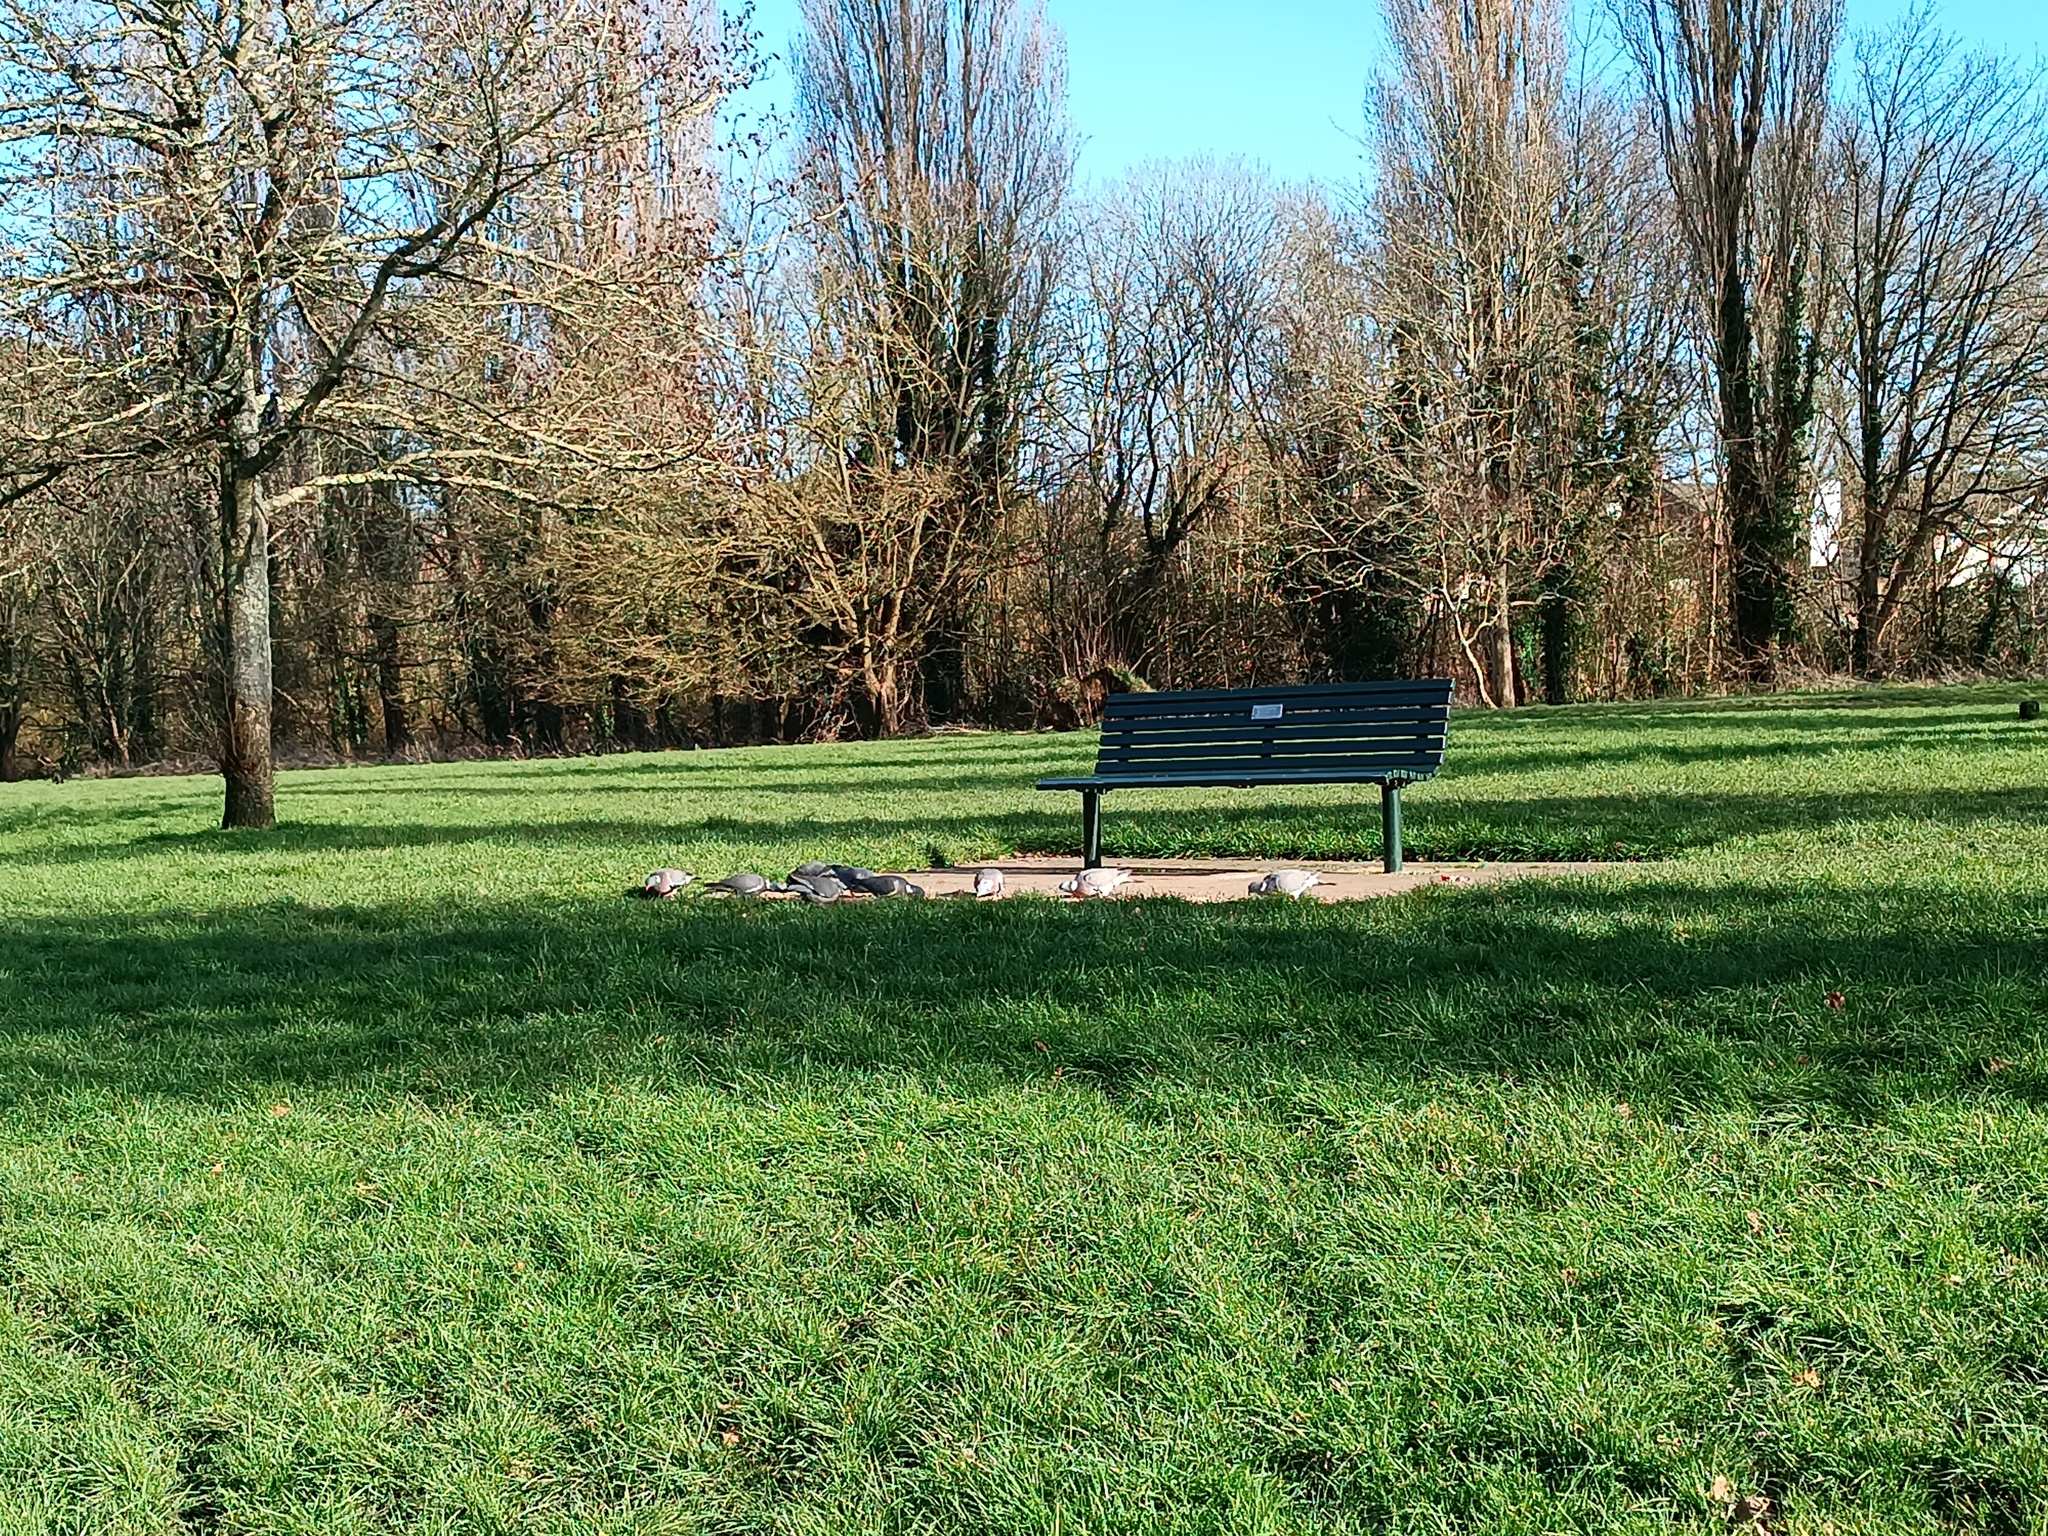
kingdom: Animalia
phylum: Chordata
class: Aves
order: Columbiformes
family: Columbidae
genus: Columba
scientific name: Columba palumbus
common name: Common wood pigeon
